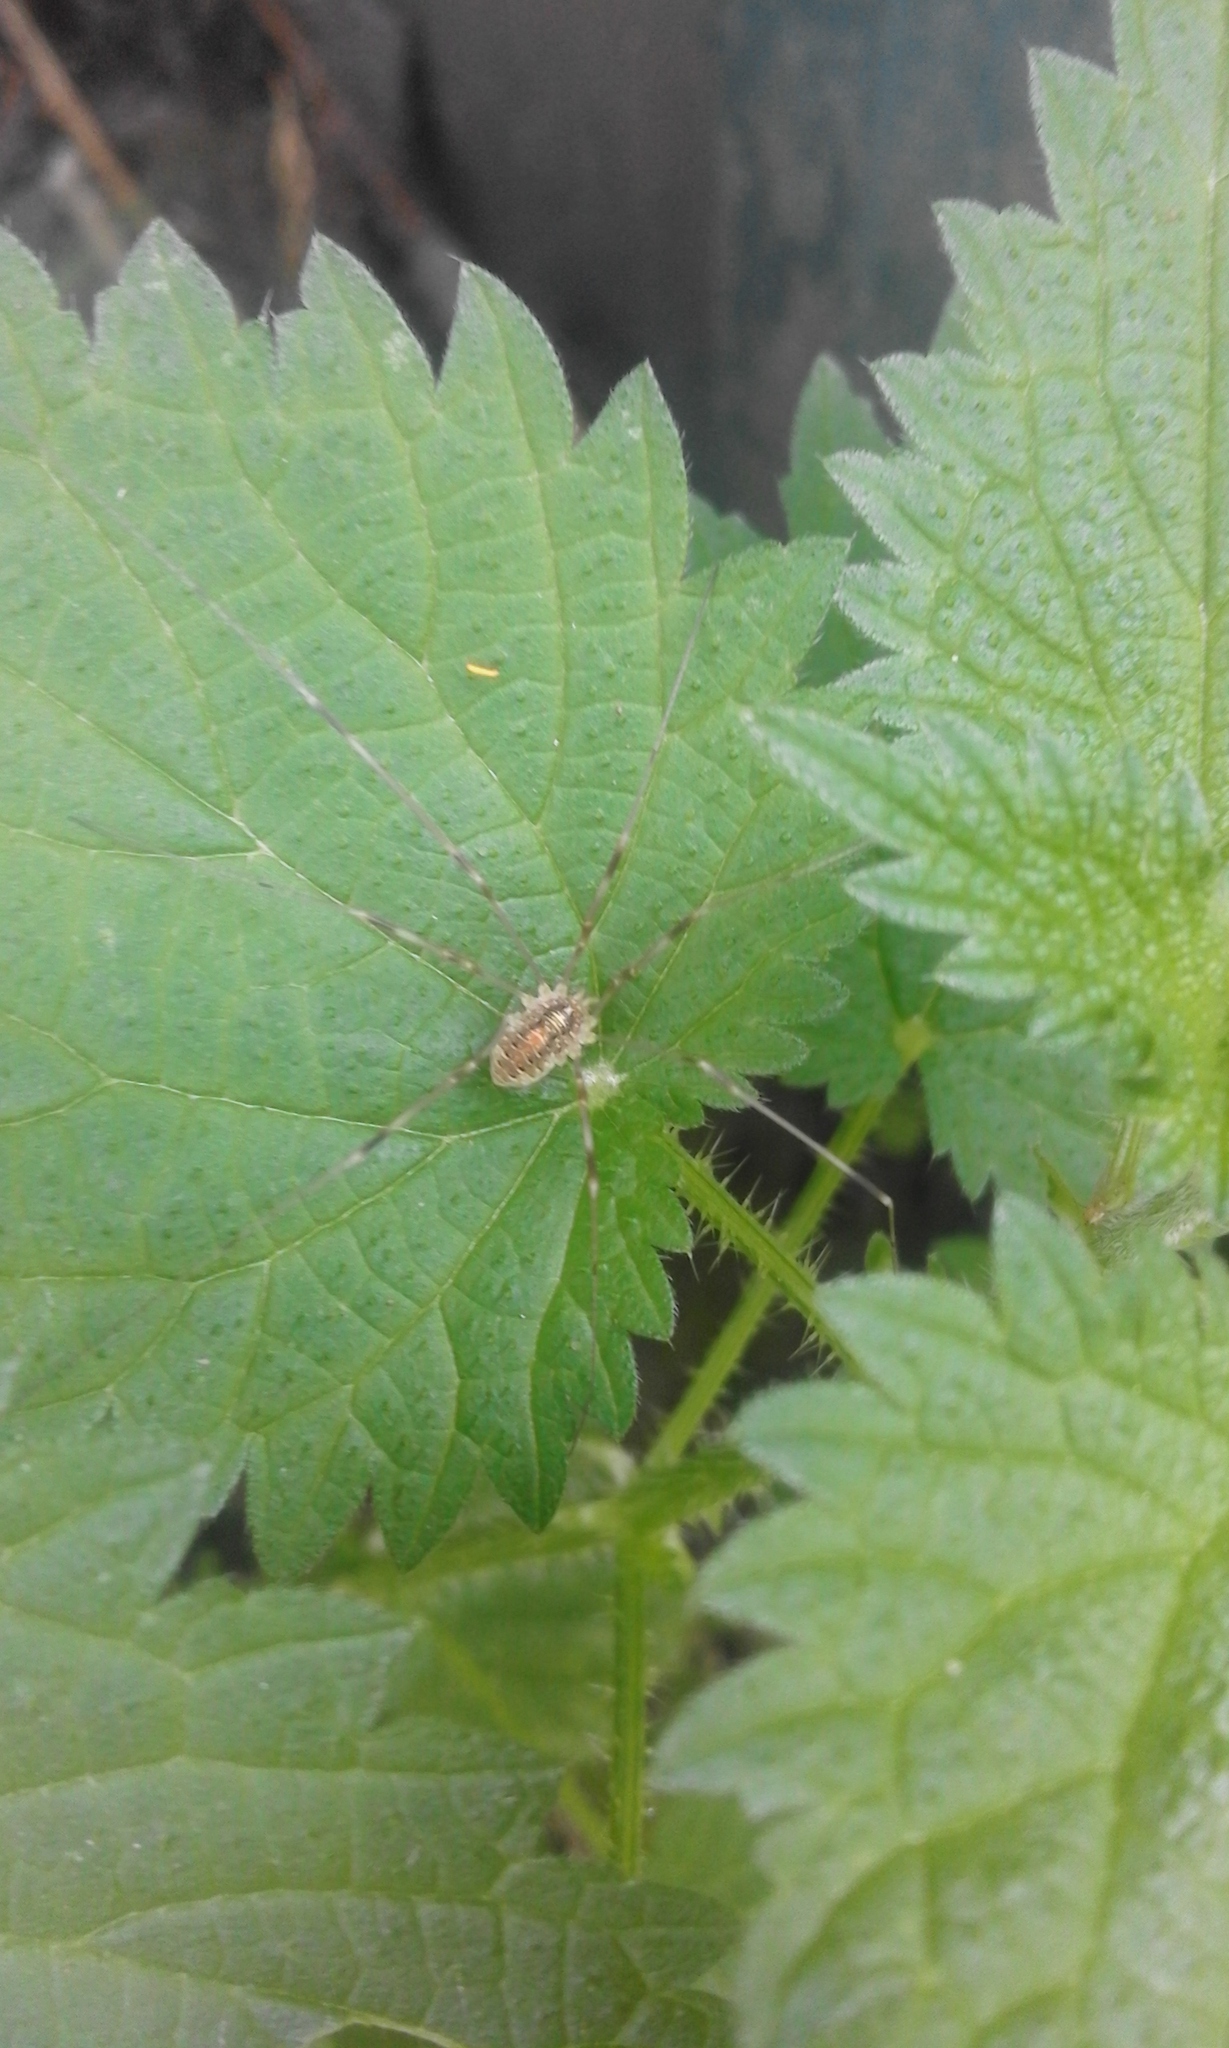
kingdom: Animalia
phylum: Arthropoda
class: Arachnida
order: Opiliones
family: Phalangiidae
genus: Opilio
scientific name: Opilio canestrinii
